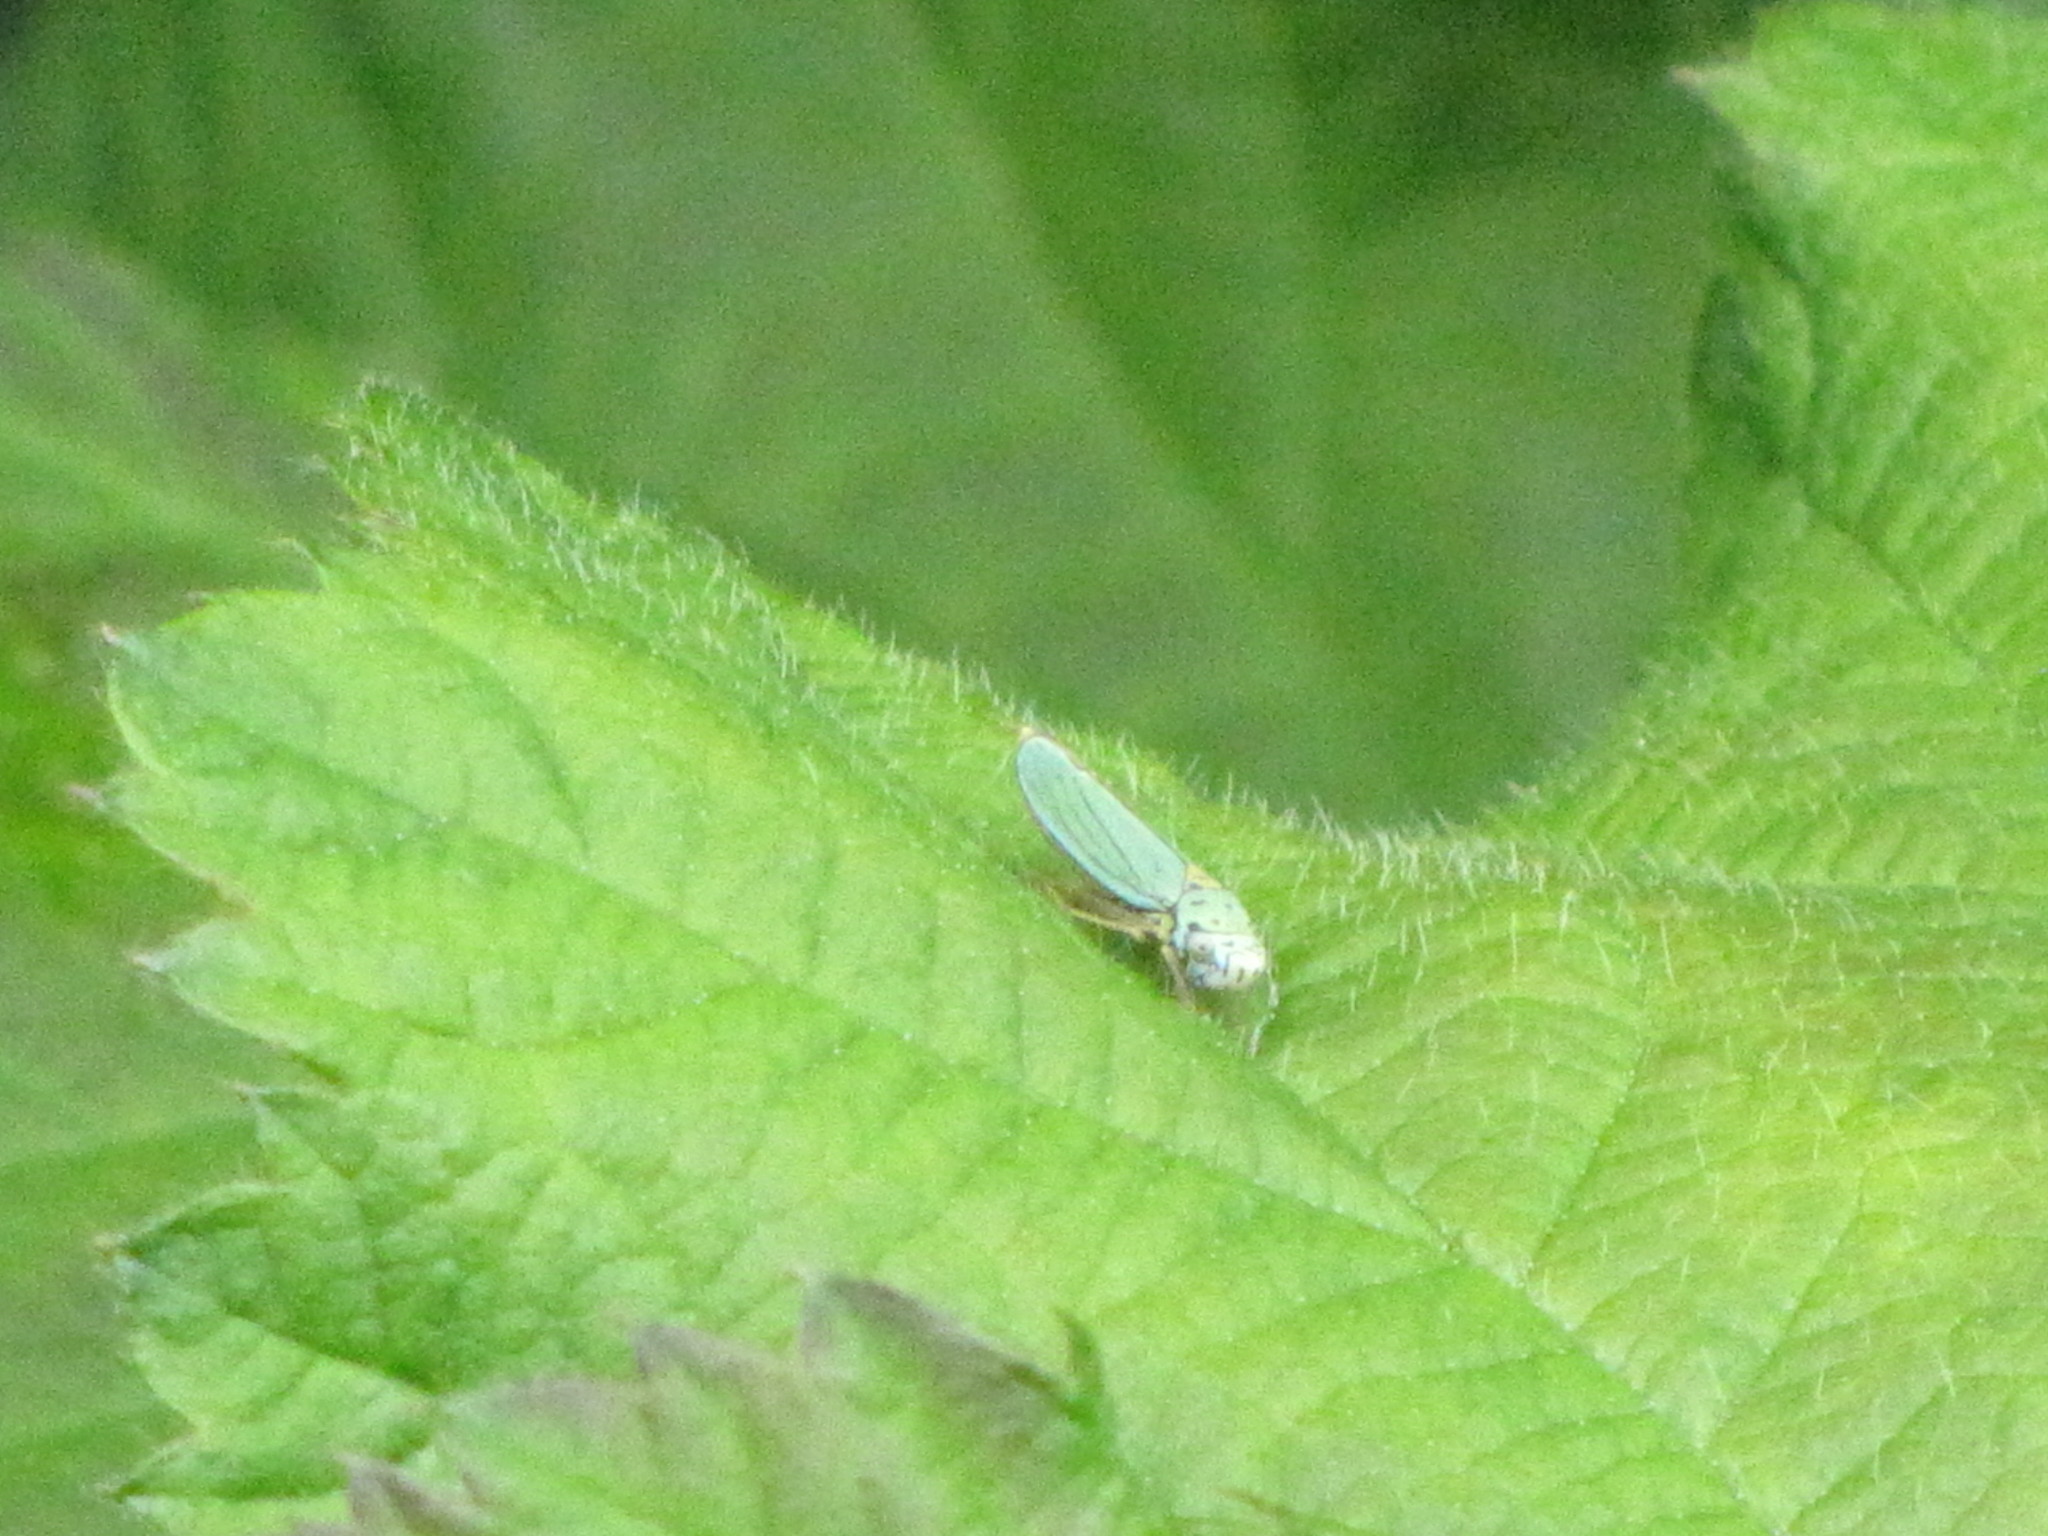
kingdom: Animalia
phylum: Arthropoda
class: Insecta
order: Hemiptera
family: Cicadellidae
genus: Graphocephala
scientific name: Graphocephala atropunctata
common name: Blue-green sharpshooter
